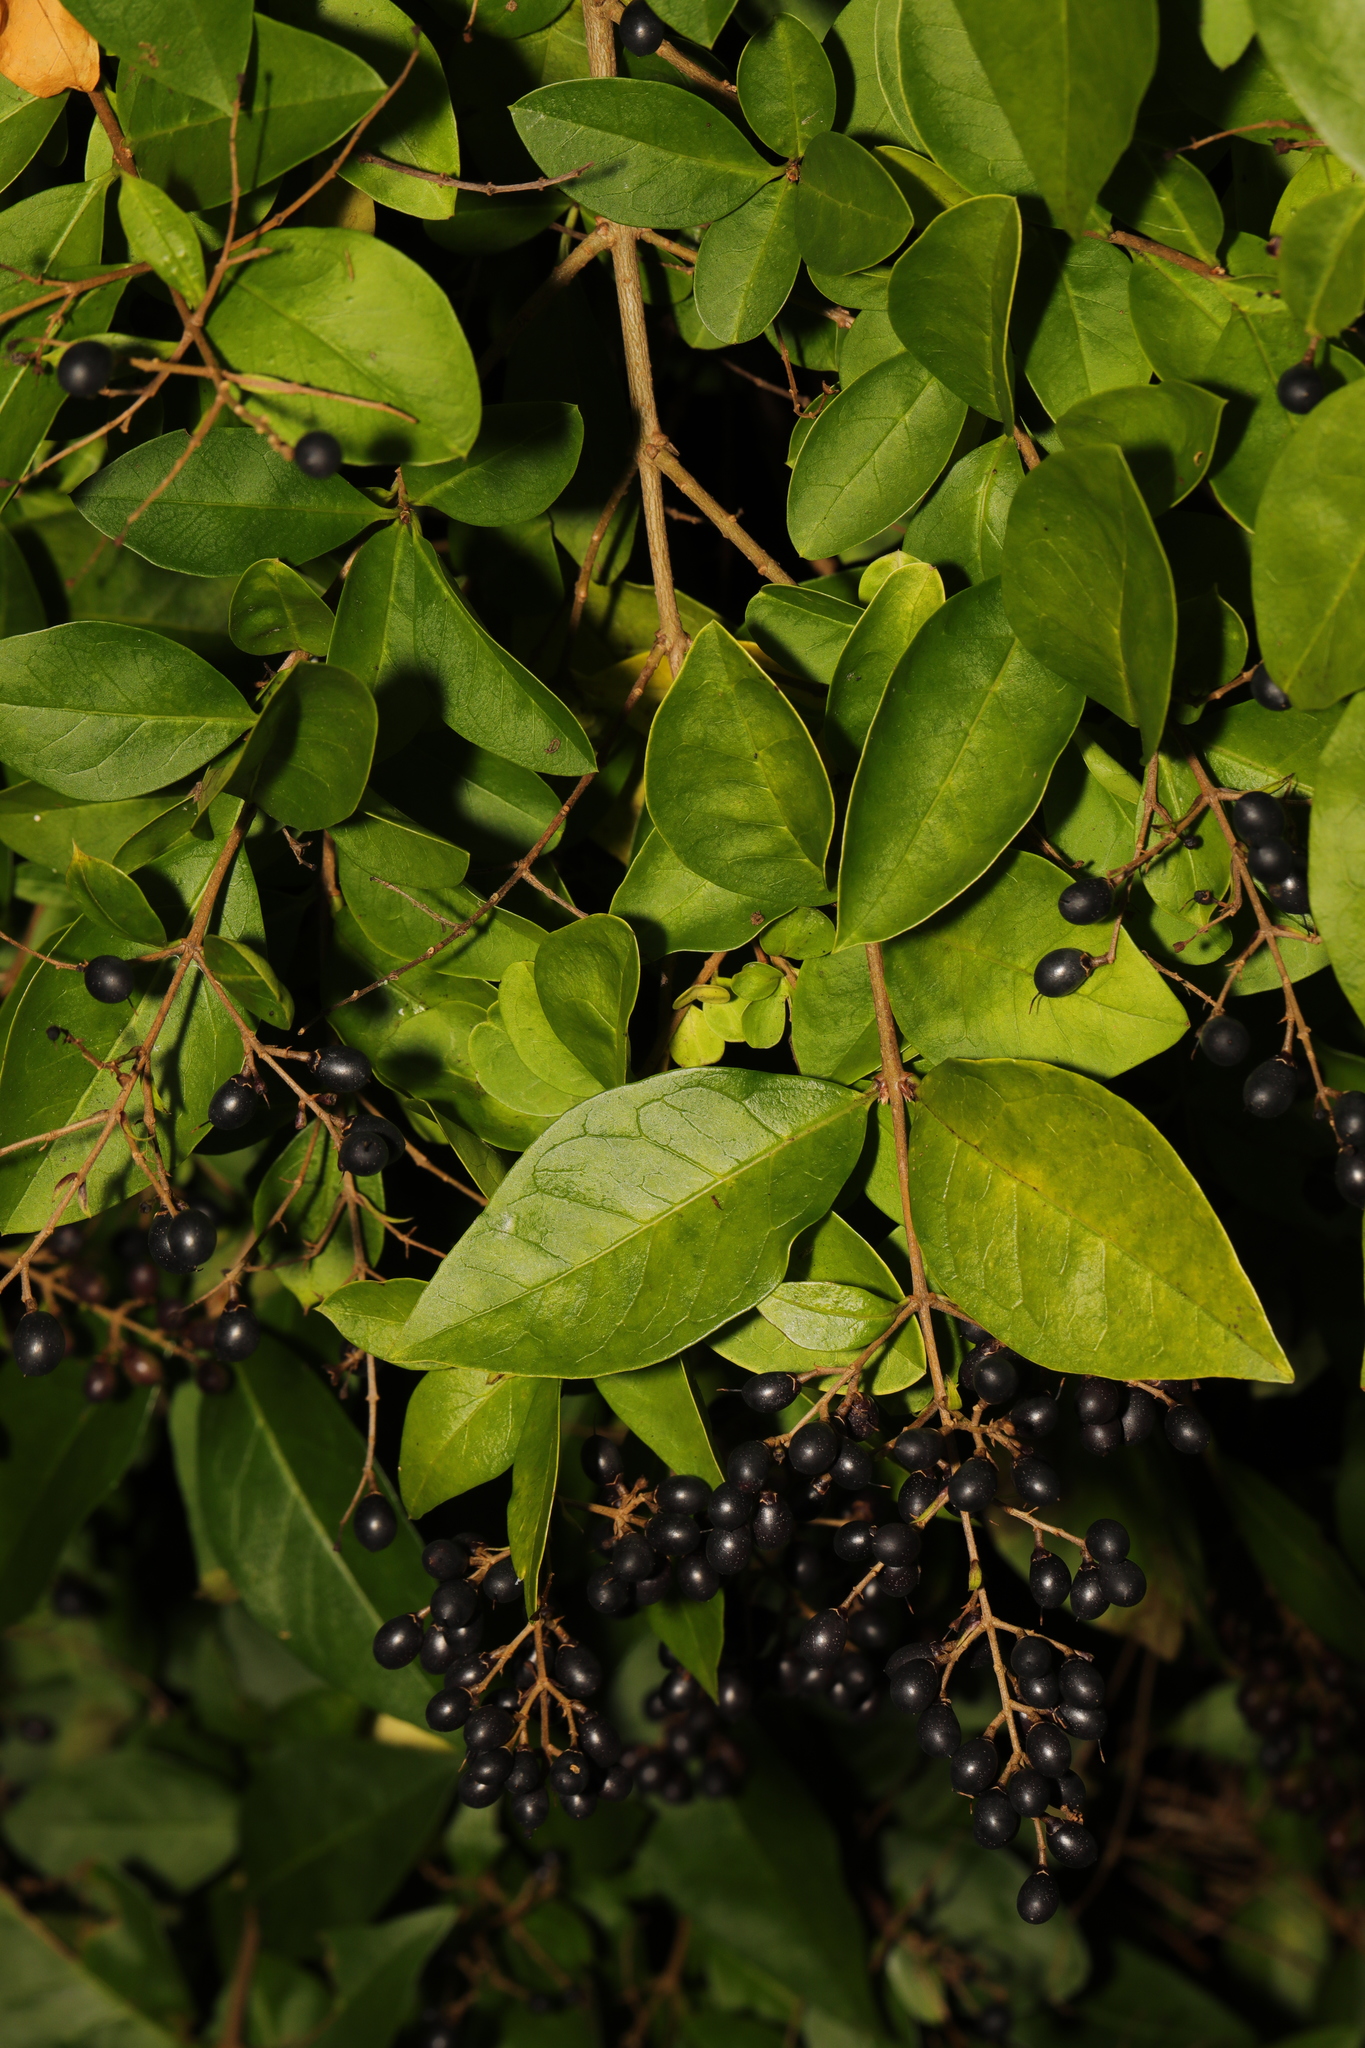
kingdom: Plantae
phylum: Tracheophyta
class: Magnoliopsida
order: Lamiales
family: Oleaceae
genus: Ligustrum
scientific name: Ligustrum ovalifolium
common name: California privet
